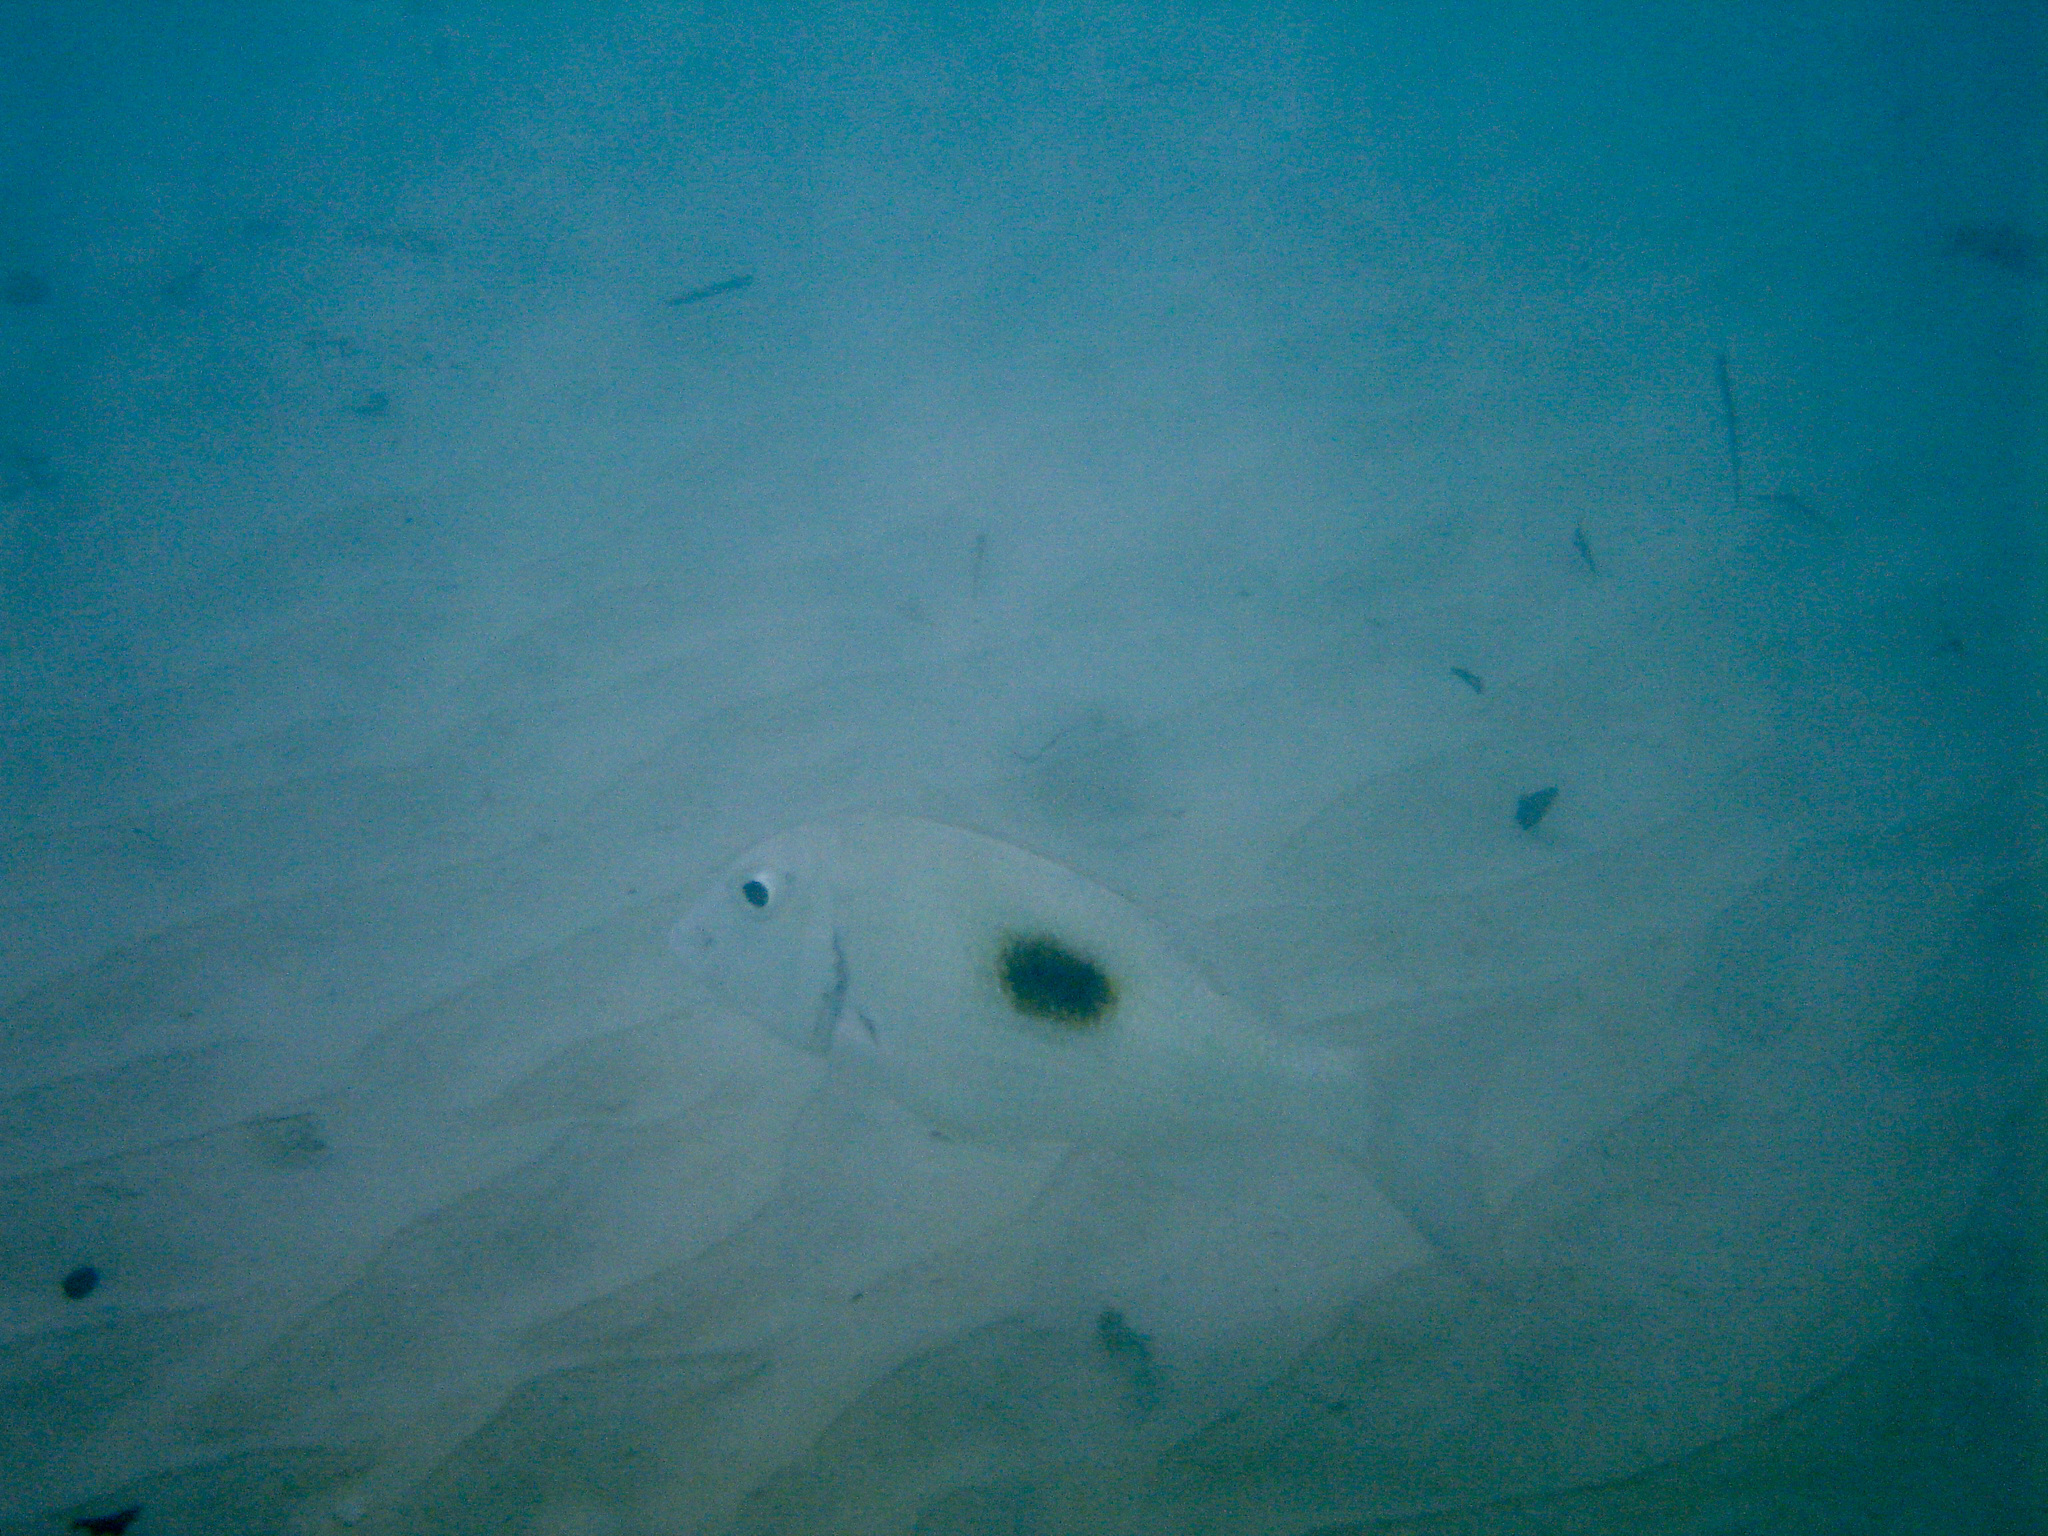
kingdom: Animalia
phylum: Chordata
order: Perciformes
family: Lethrinidae
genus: Lethrinus
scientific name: Lethrinus harak
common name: Blackspot emperor
